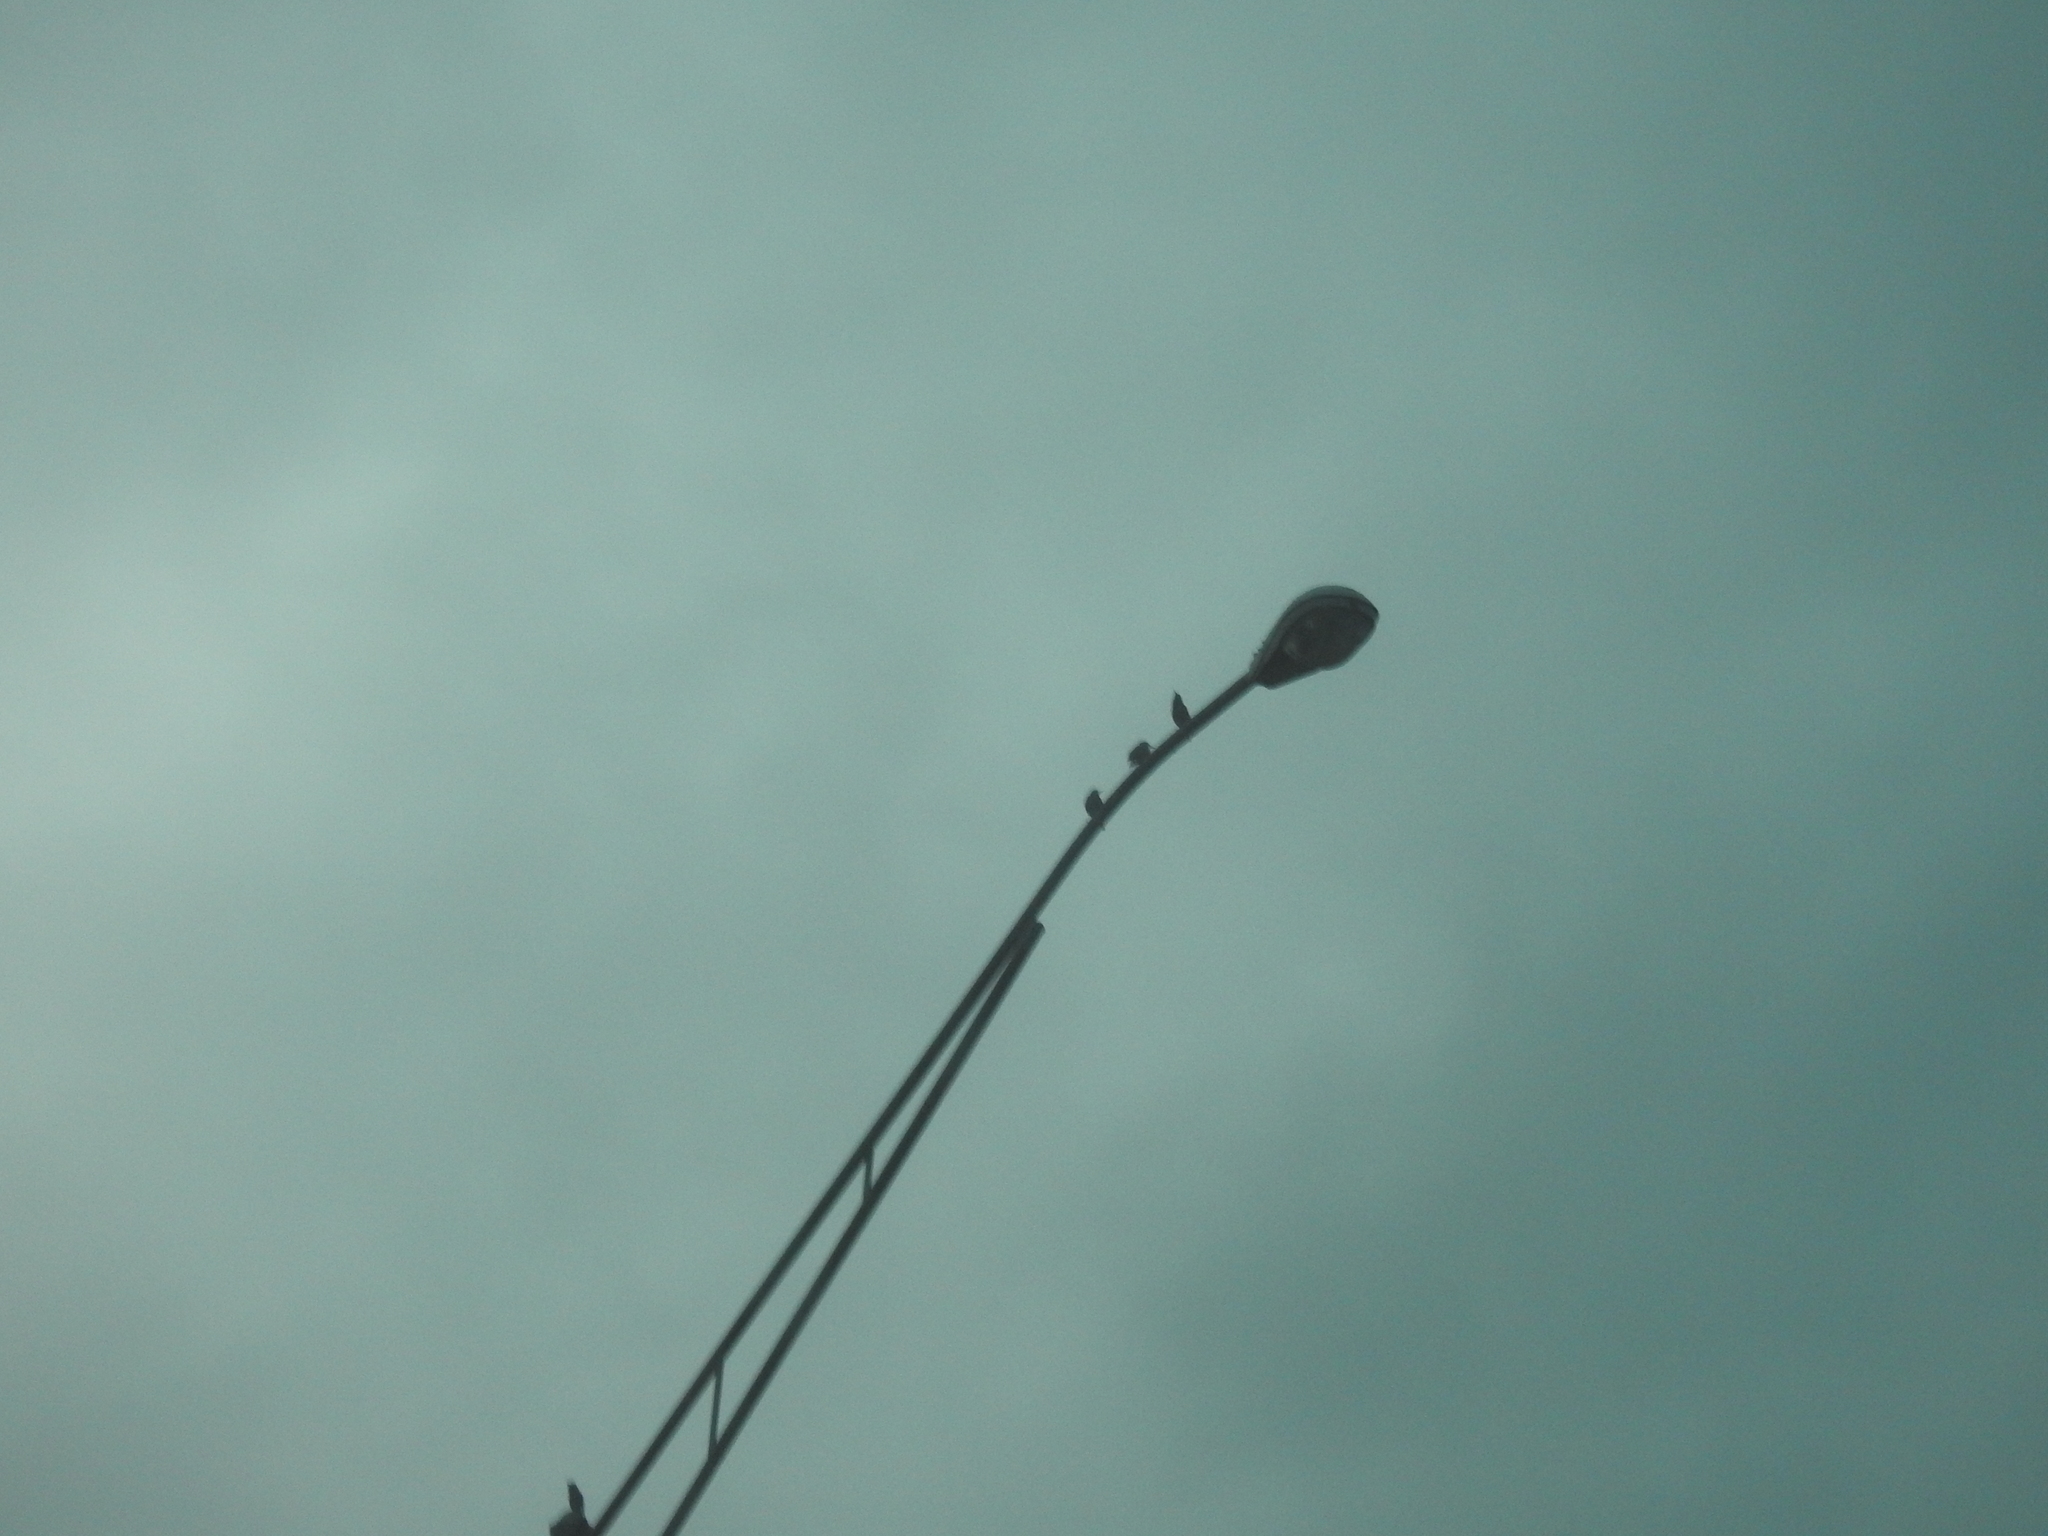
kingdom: Animalia
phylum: Chordata
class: Aves
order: Passeriformes
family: Sturnidae
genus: Sturnus
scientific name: Sturnus vulgaris
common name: Common starling
